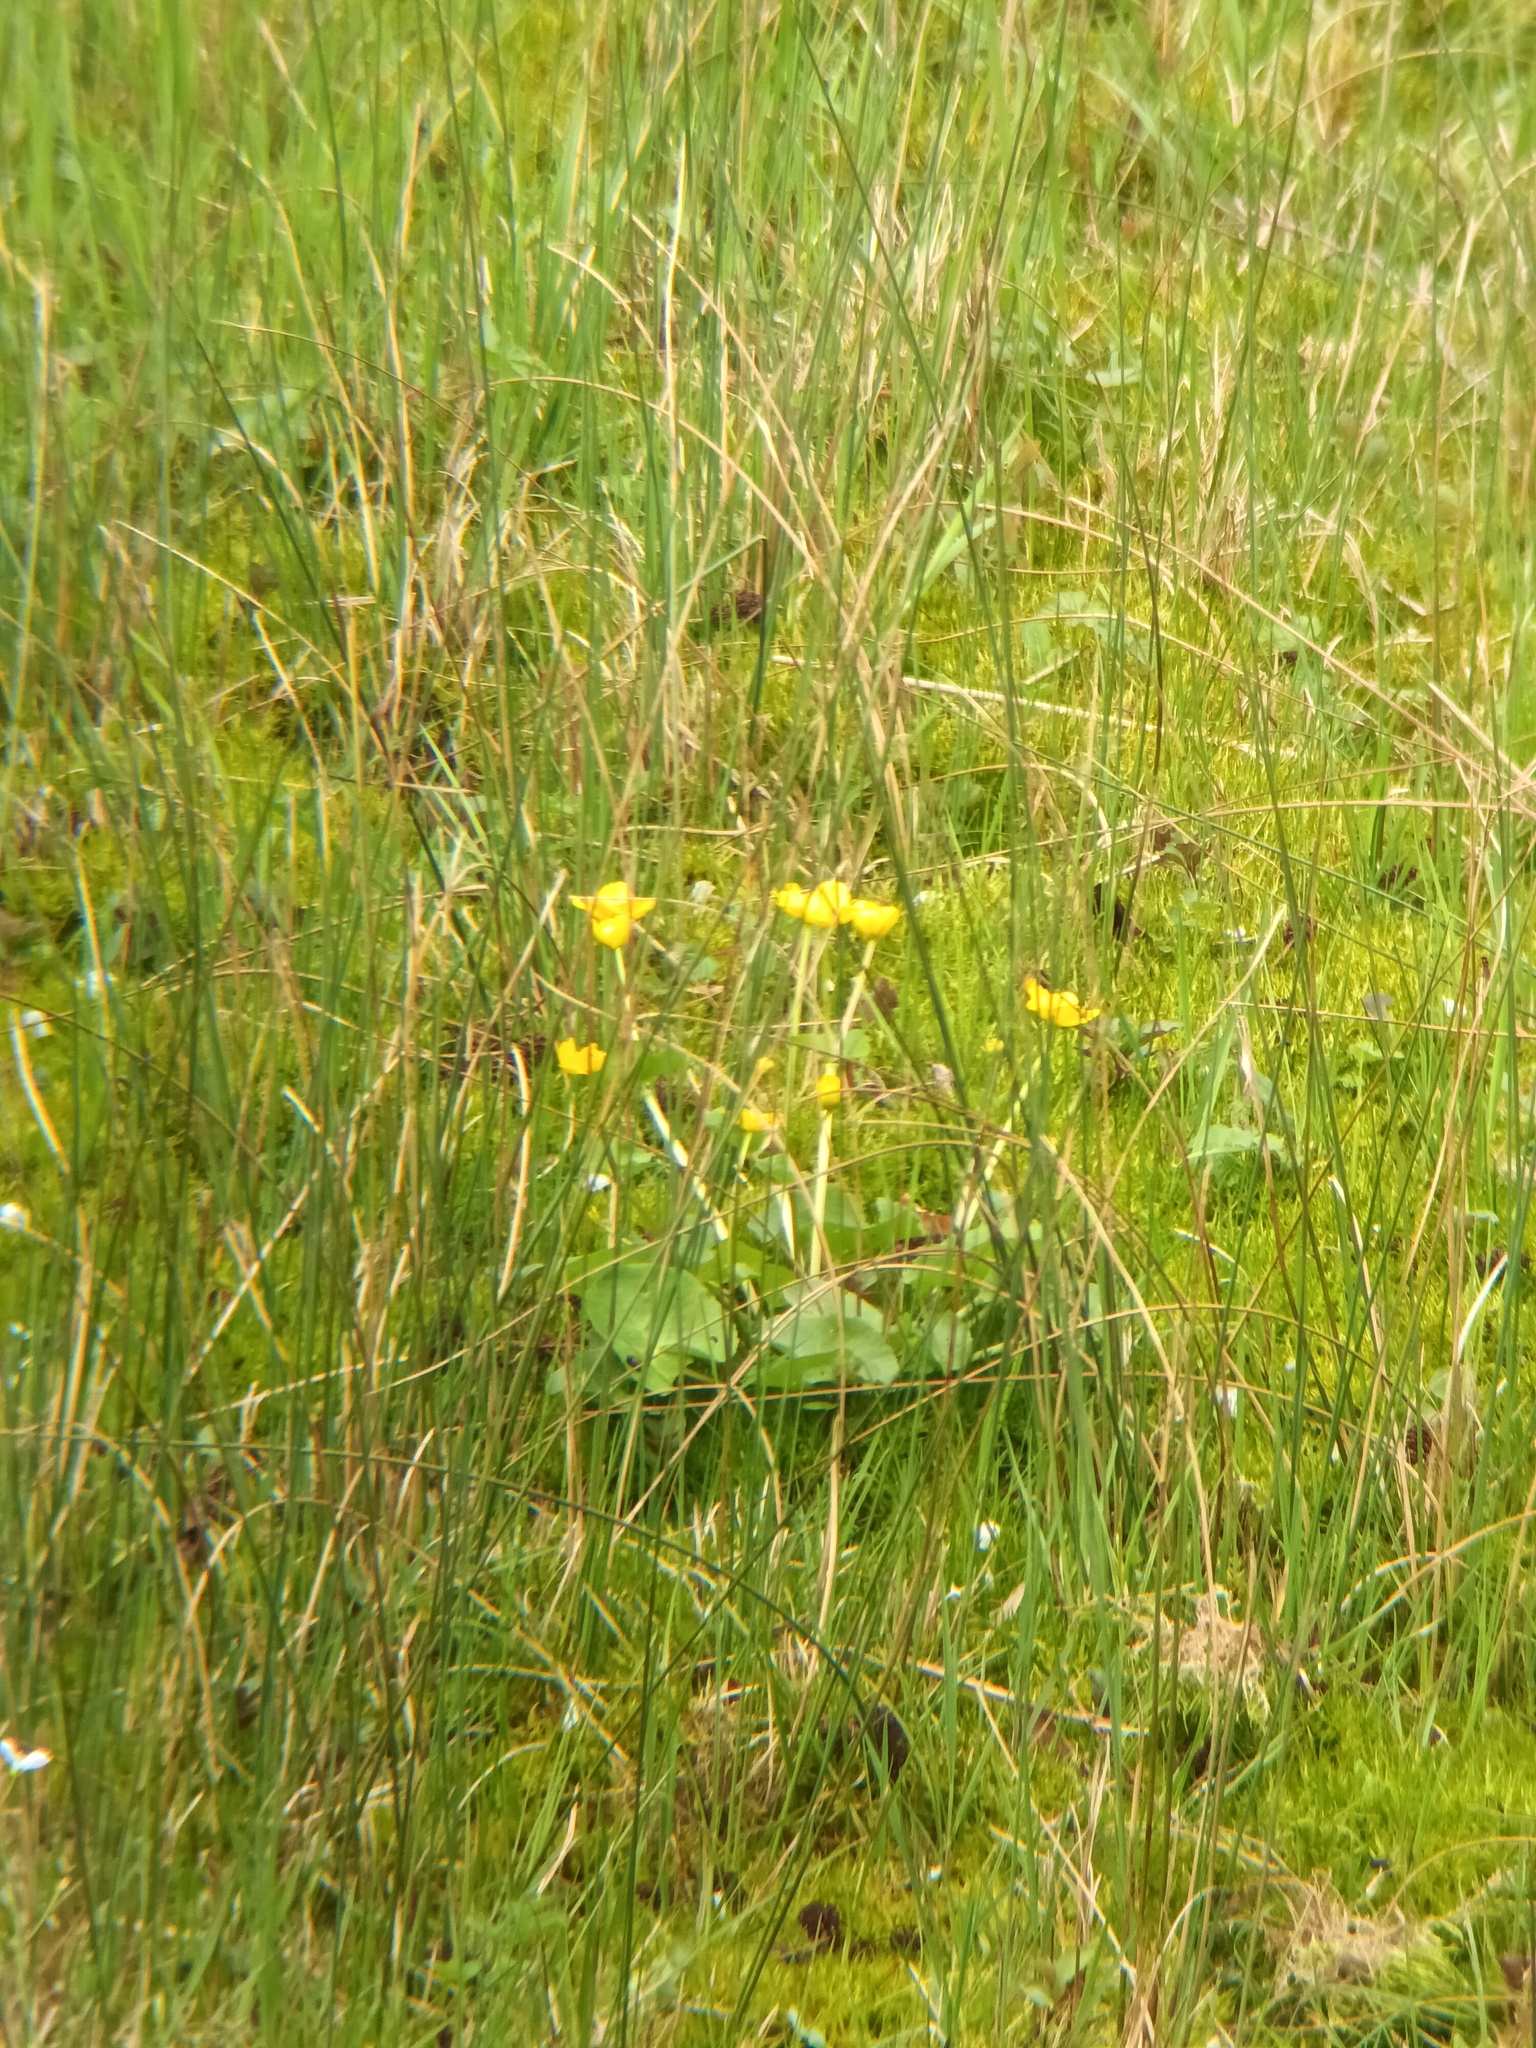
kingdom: Plantae
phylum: Tracheophyta
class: Magnoliopsida
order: Ranunculales
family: Ranunculaceae
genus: Caltha
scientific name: Caltha palustris
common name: Marsh marigold
